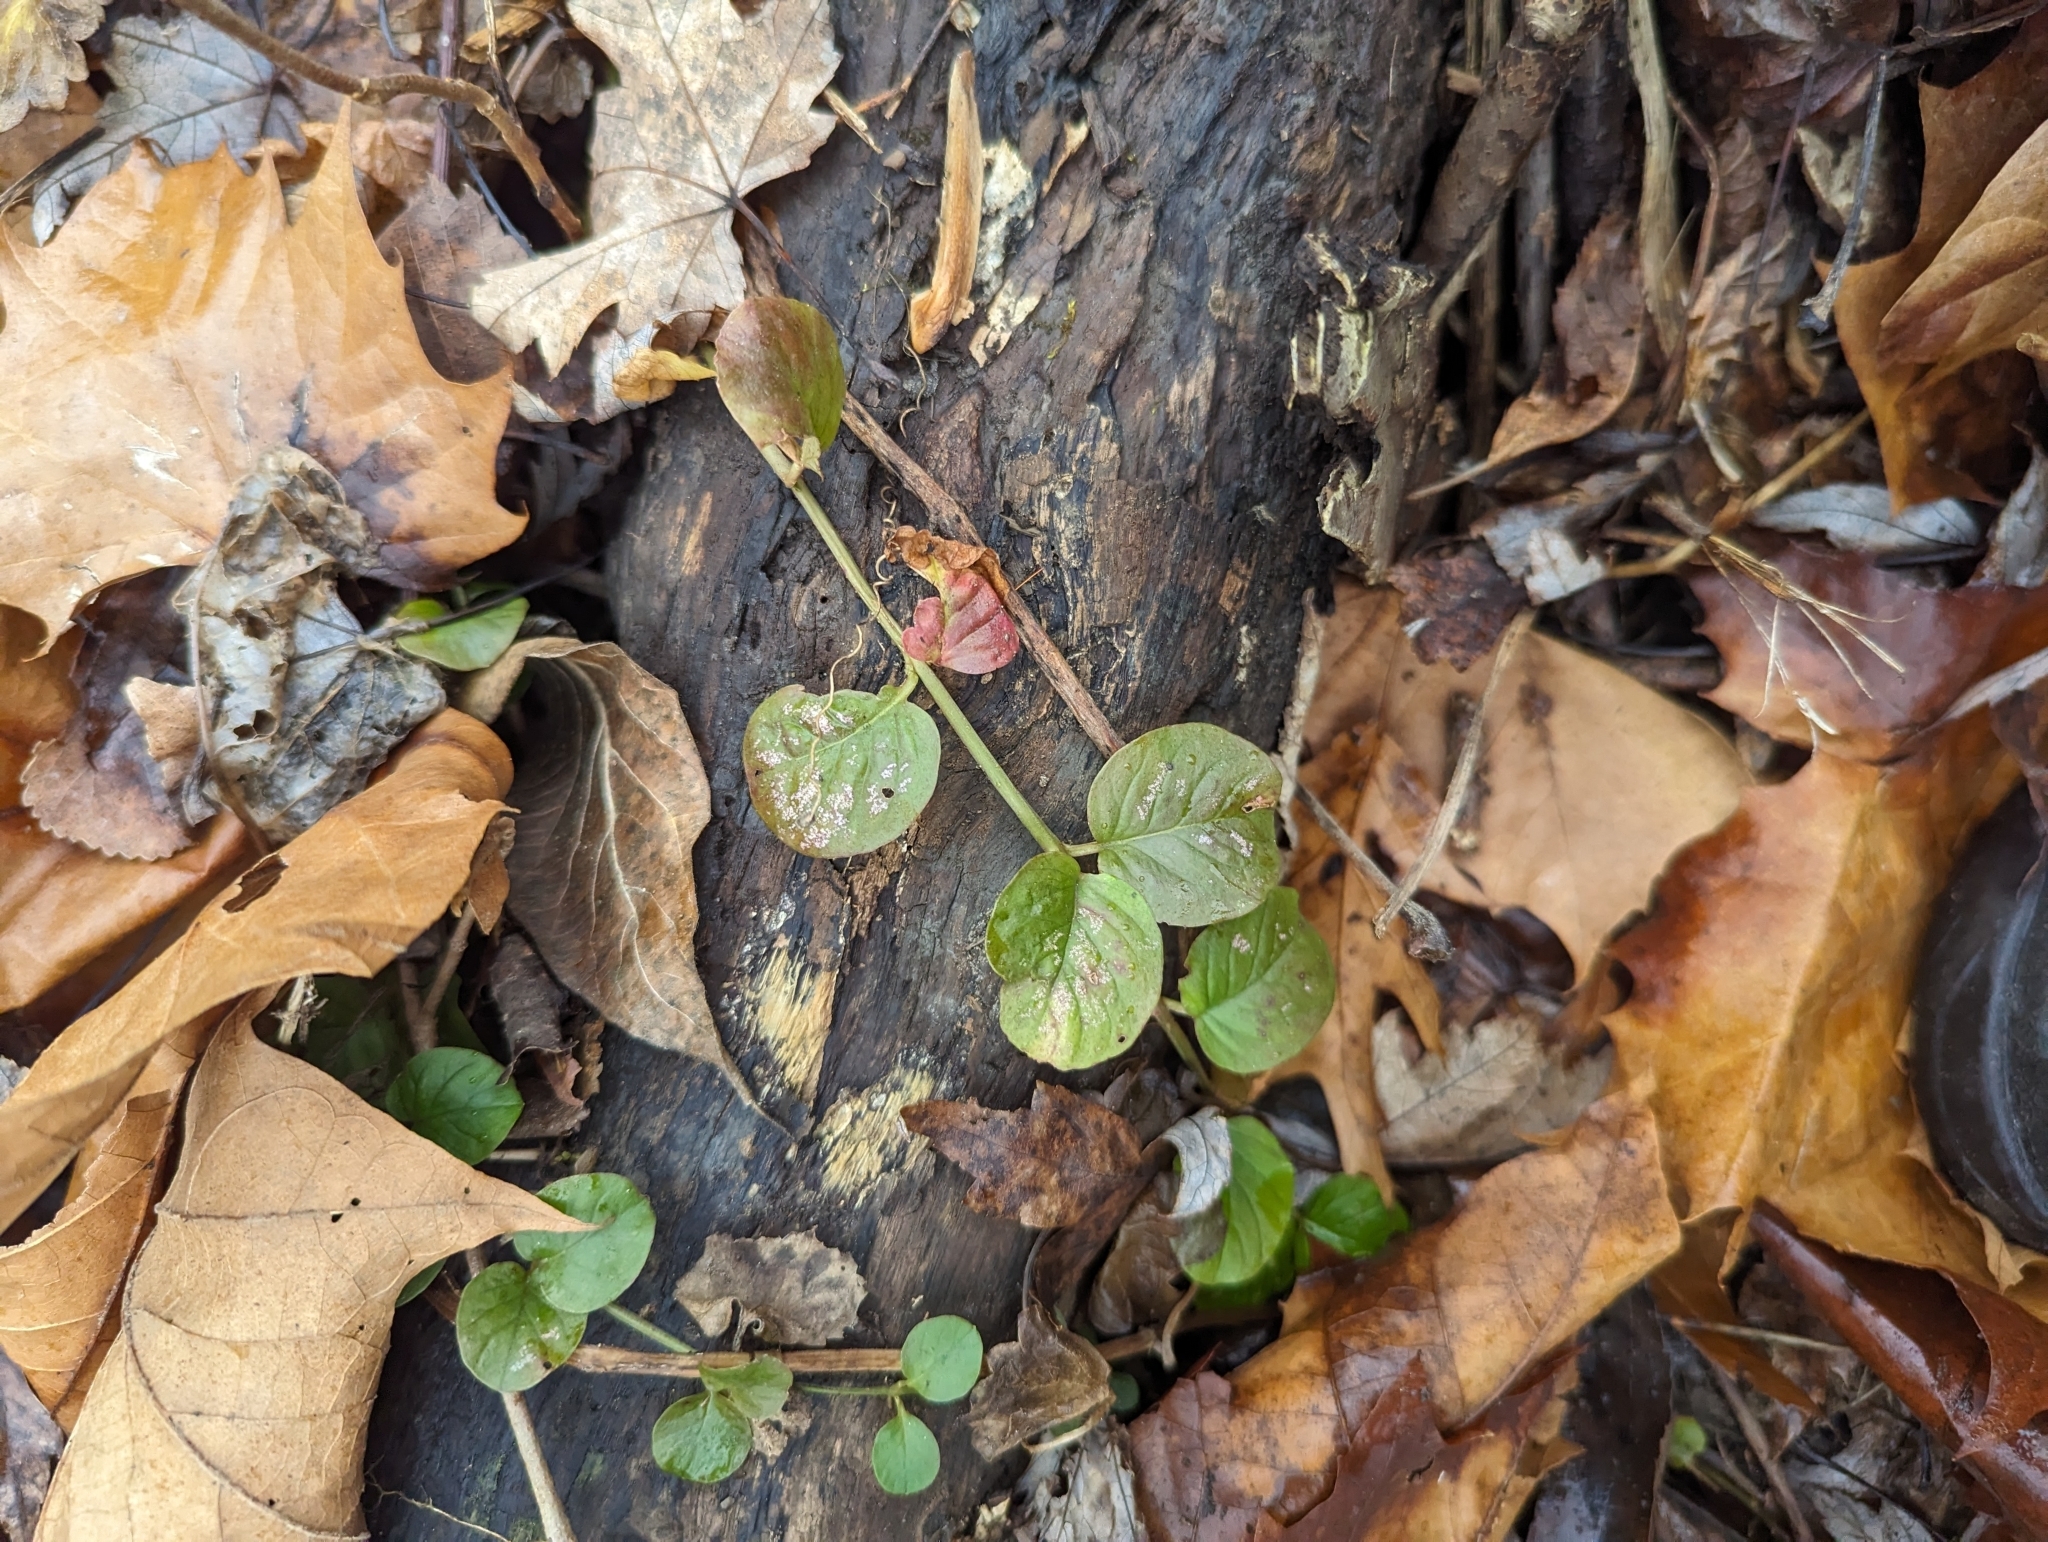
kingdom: Plantae
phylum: Tracheophyta
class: Magnoliopsida
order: Ericales
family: Primulaceae
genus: Lysimachia
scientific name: Lysimachia nummularia
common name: Moneywort
